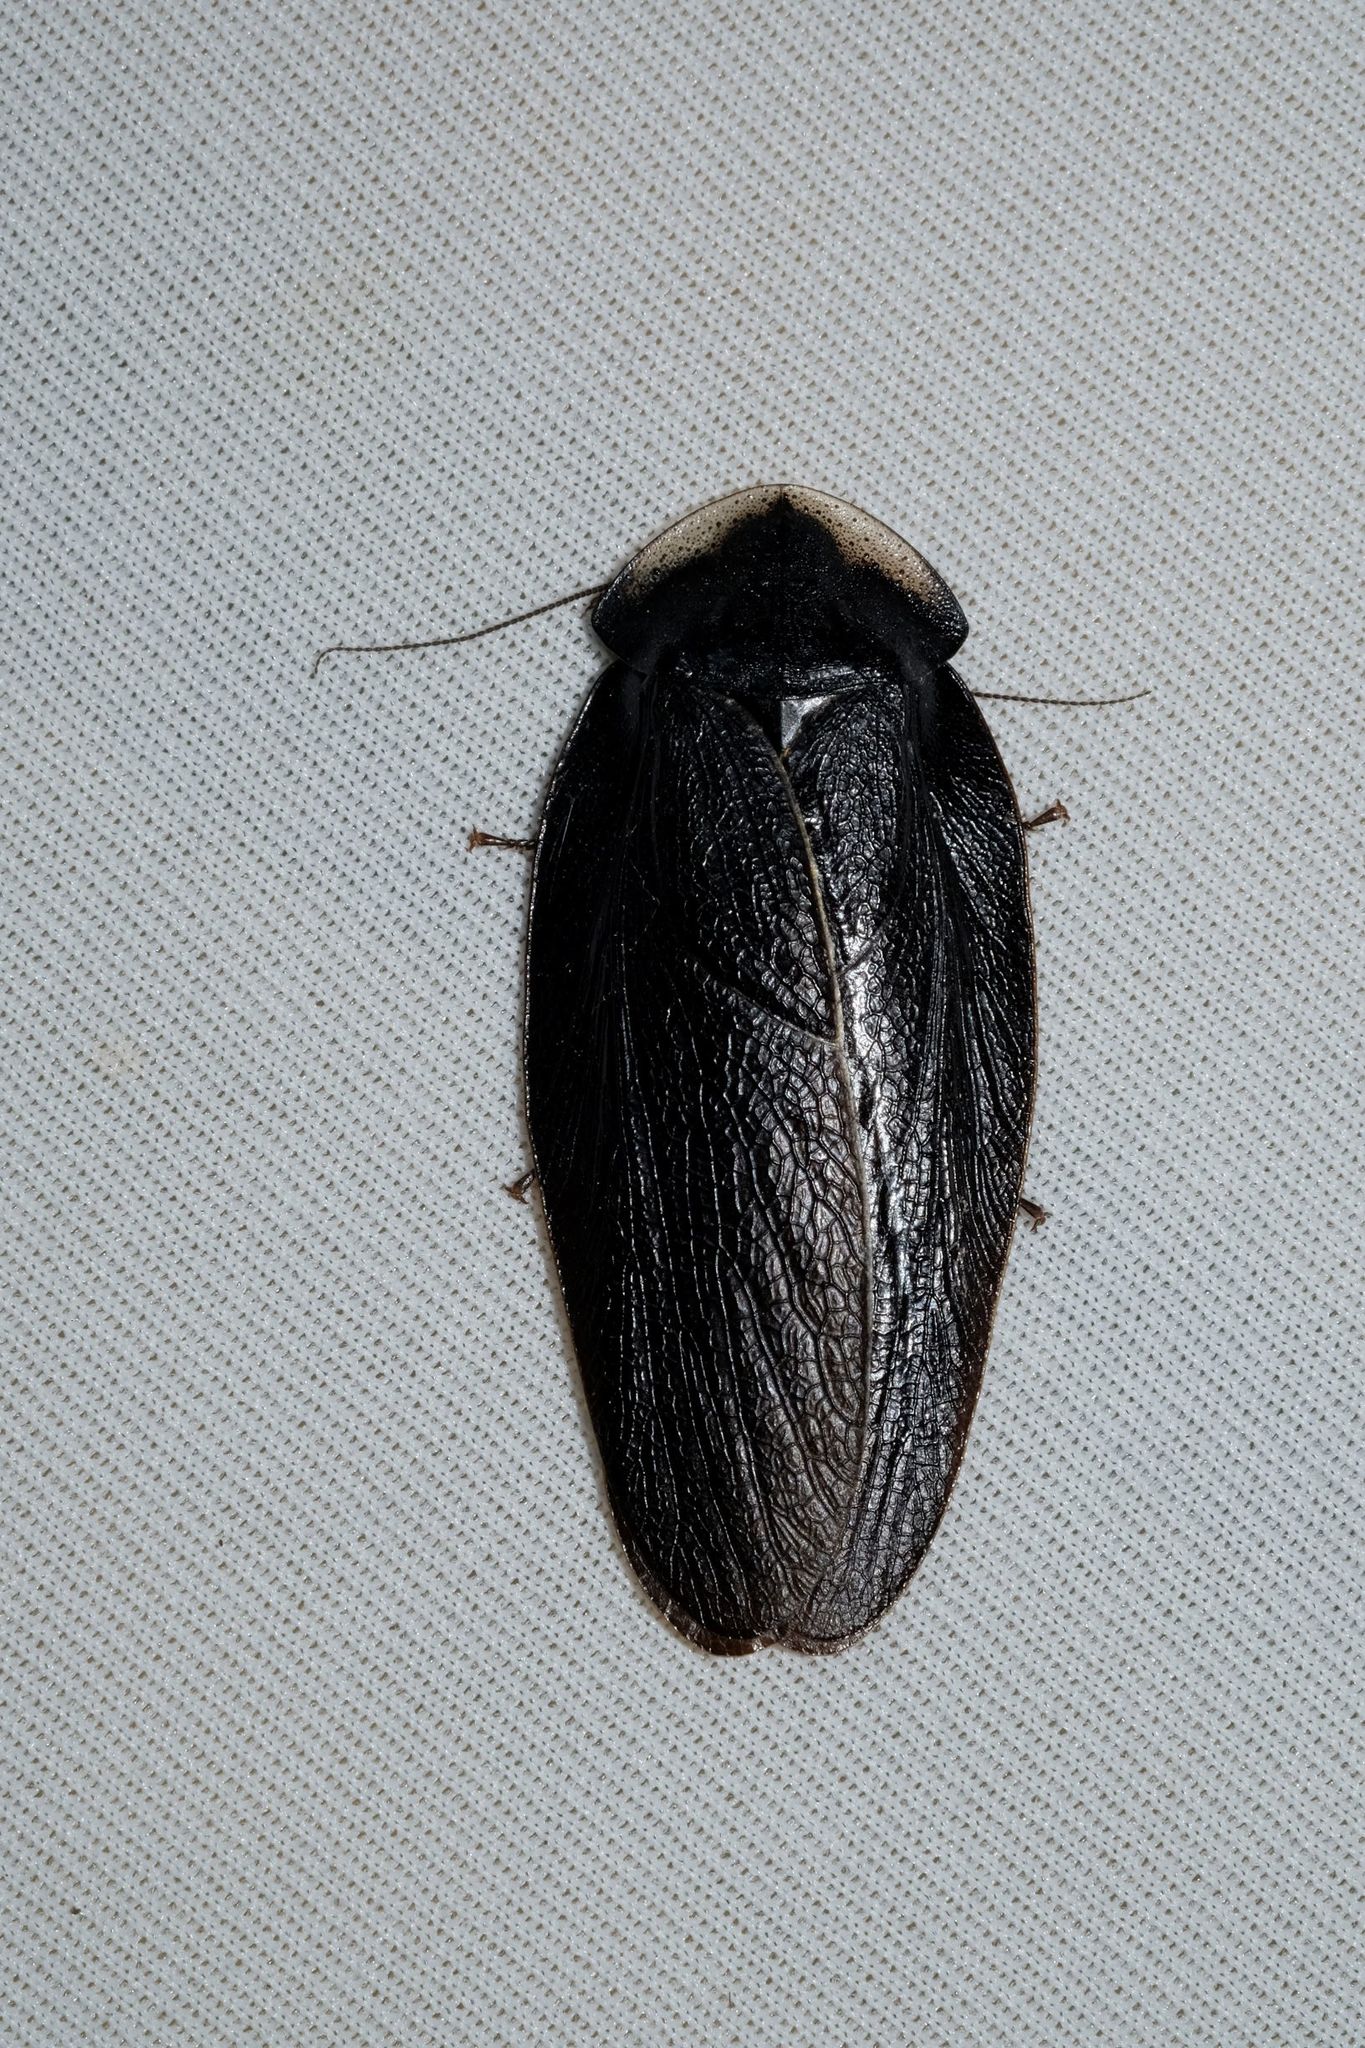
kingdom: Animalia
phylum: Arthropoda
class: Insecta
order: Blattodea
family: Blaberidae
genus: Laxta
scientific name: Laxta granicollis
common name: Bark cockroach
